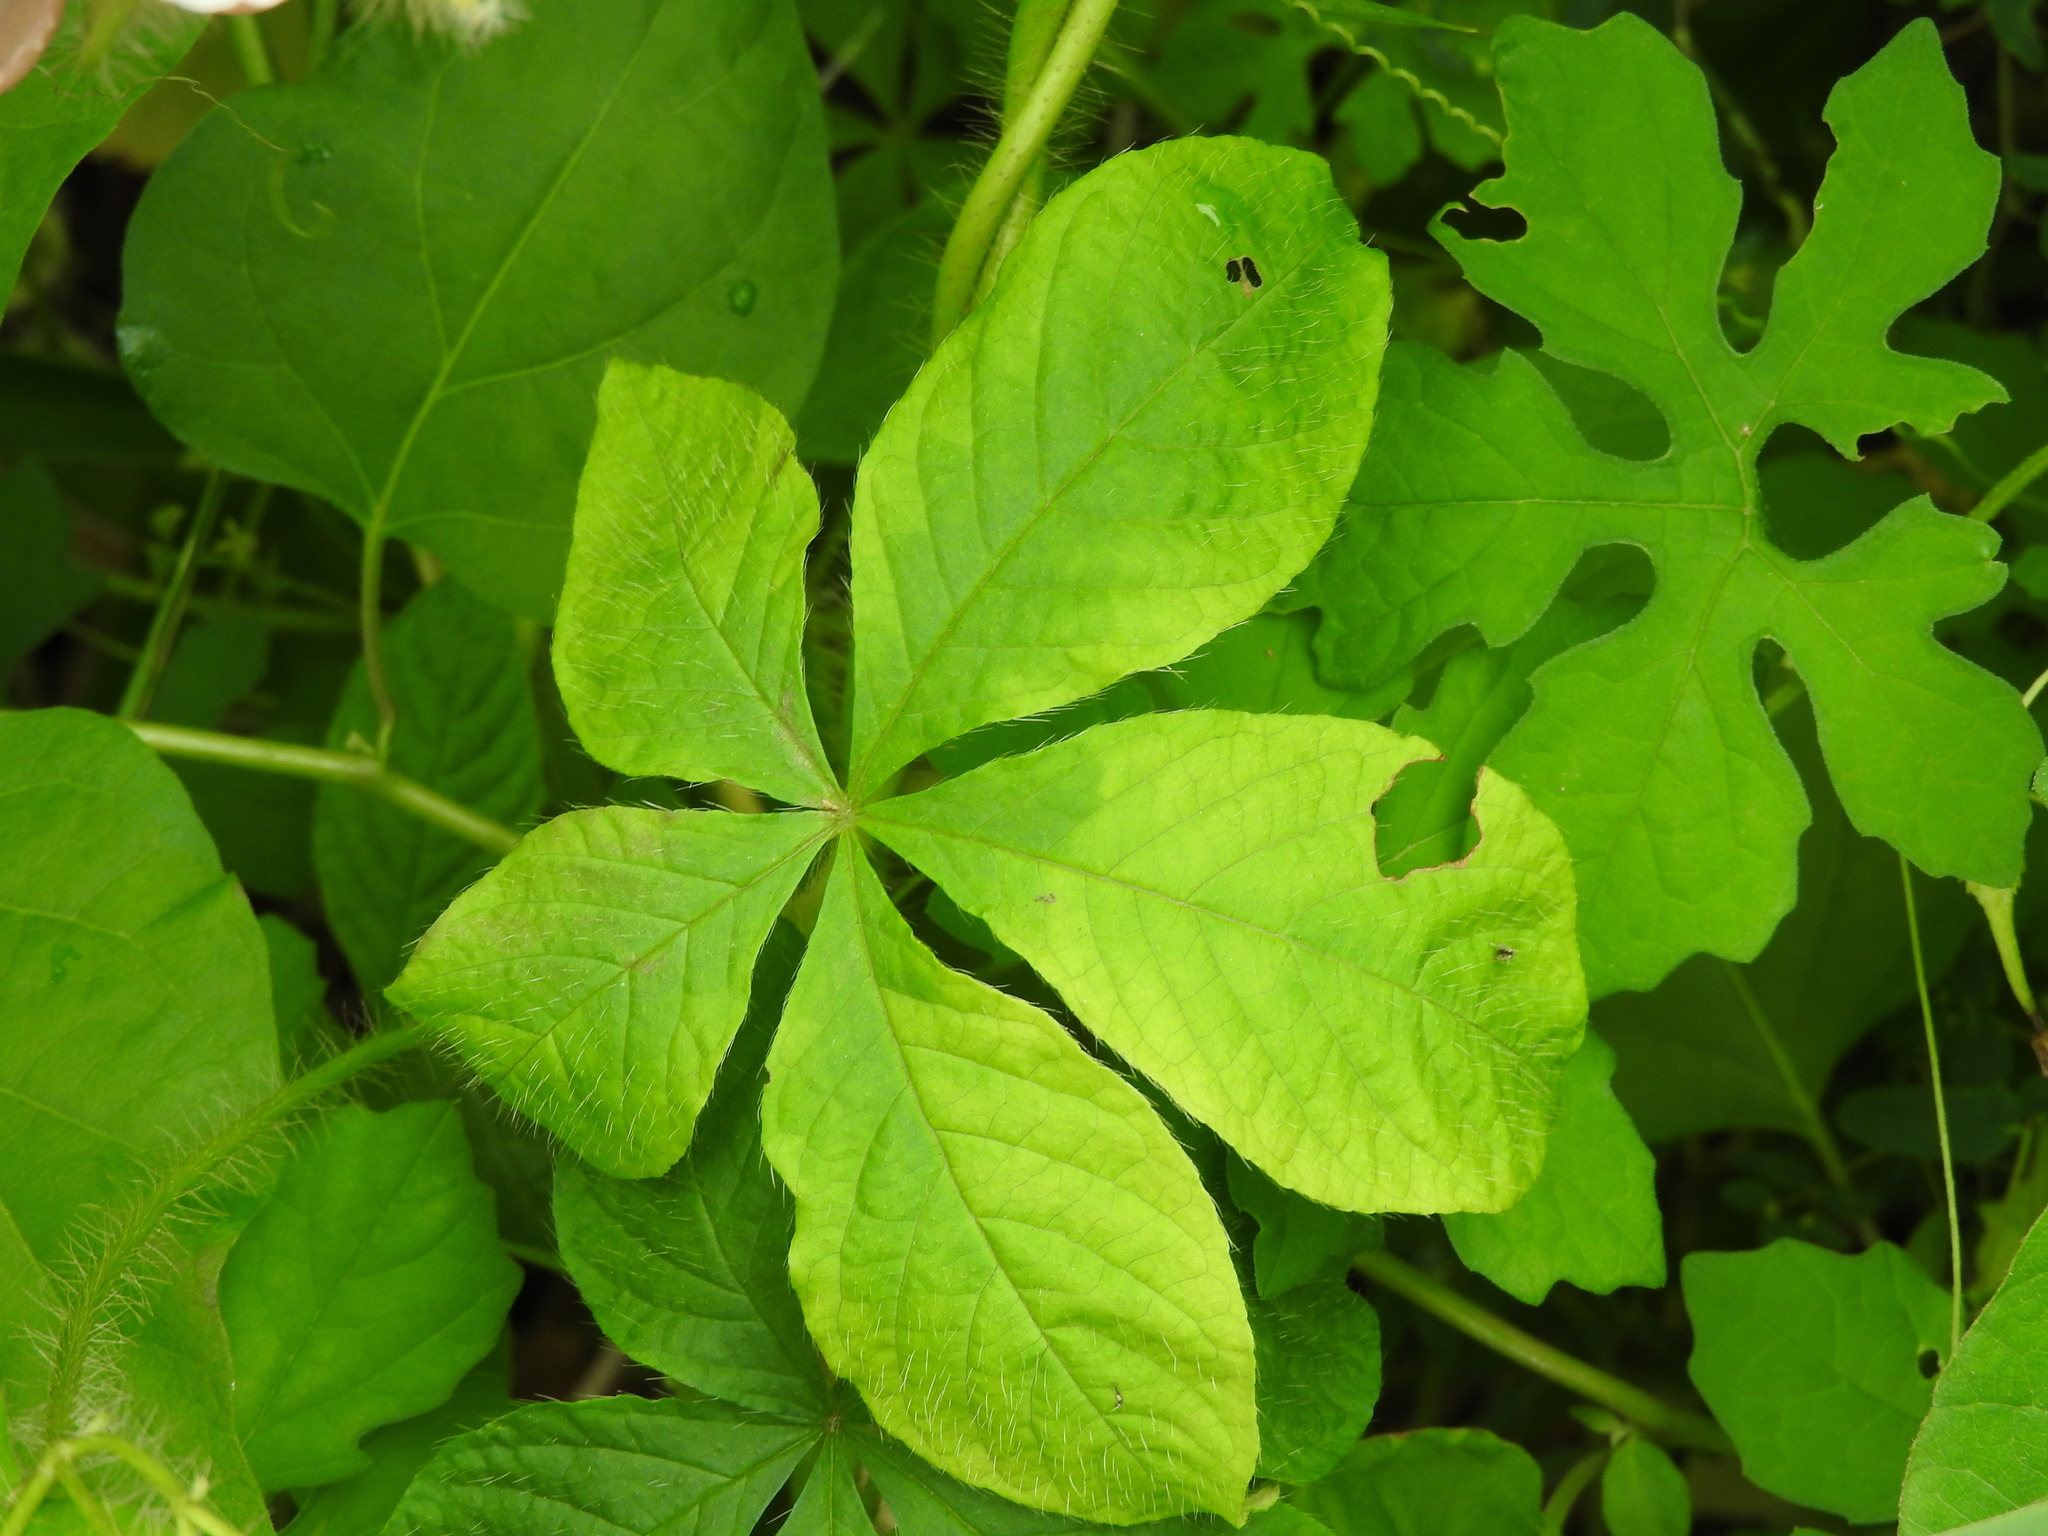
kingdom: Plantae
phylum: Tracheophyta
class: Magnoliopsida
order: Solanales
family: Convolvulaceae
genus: Distimake
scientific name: Distimake aegyptius
